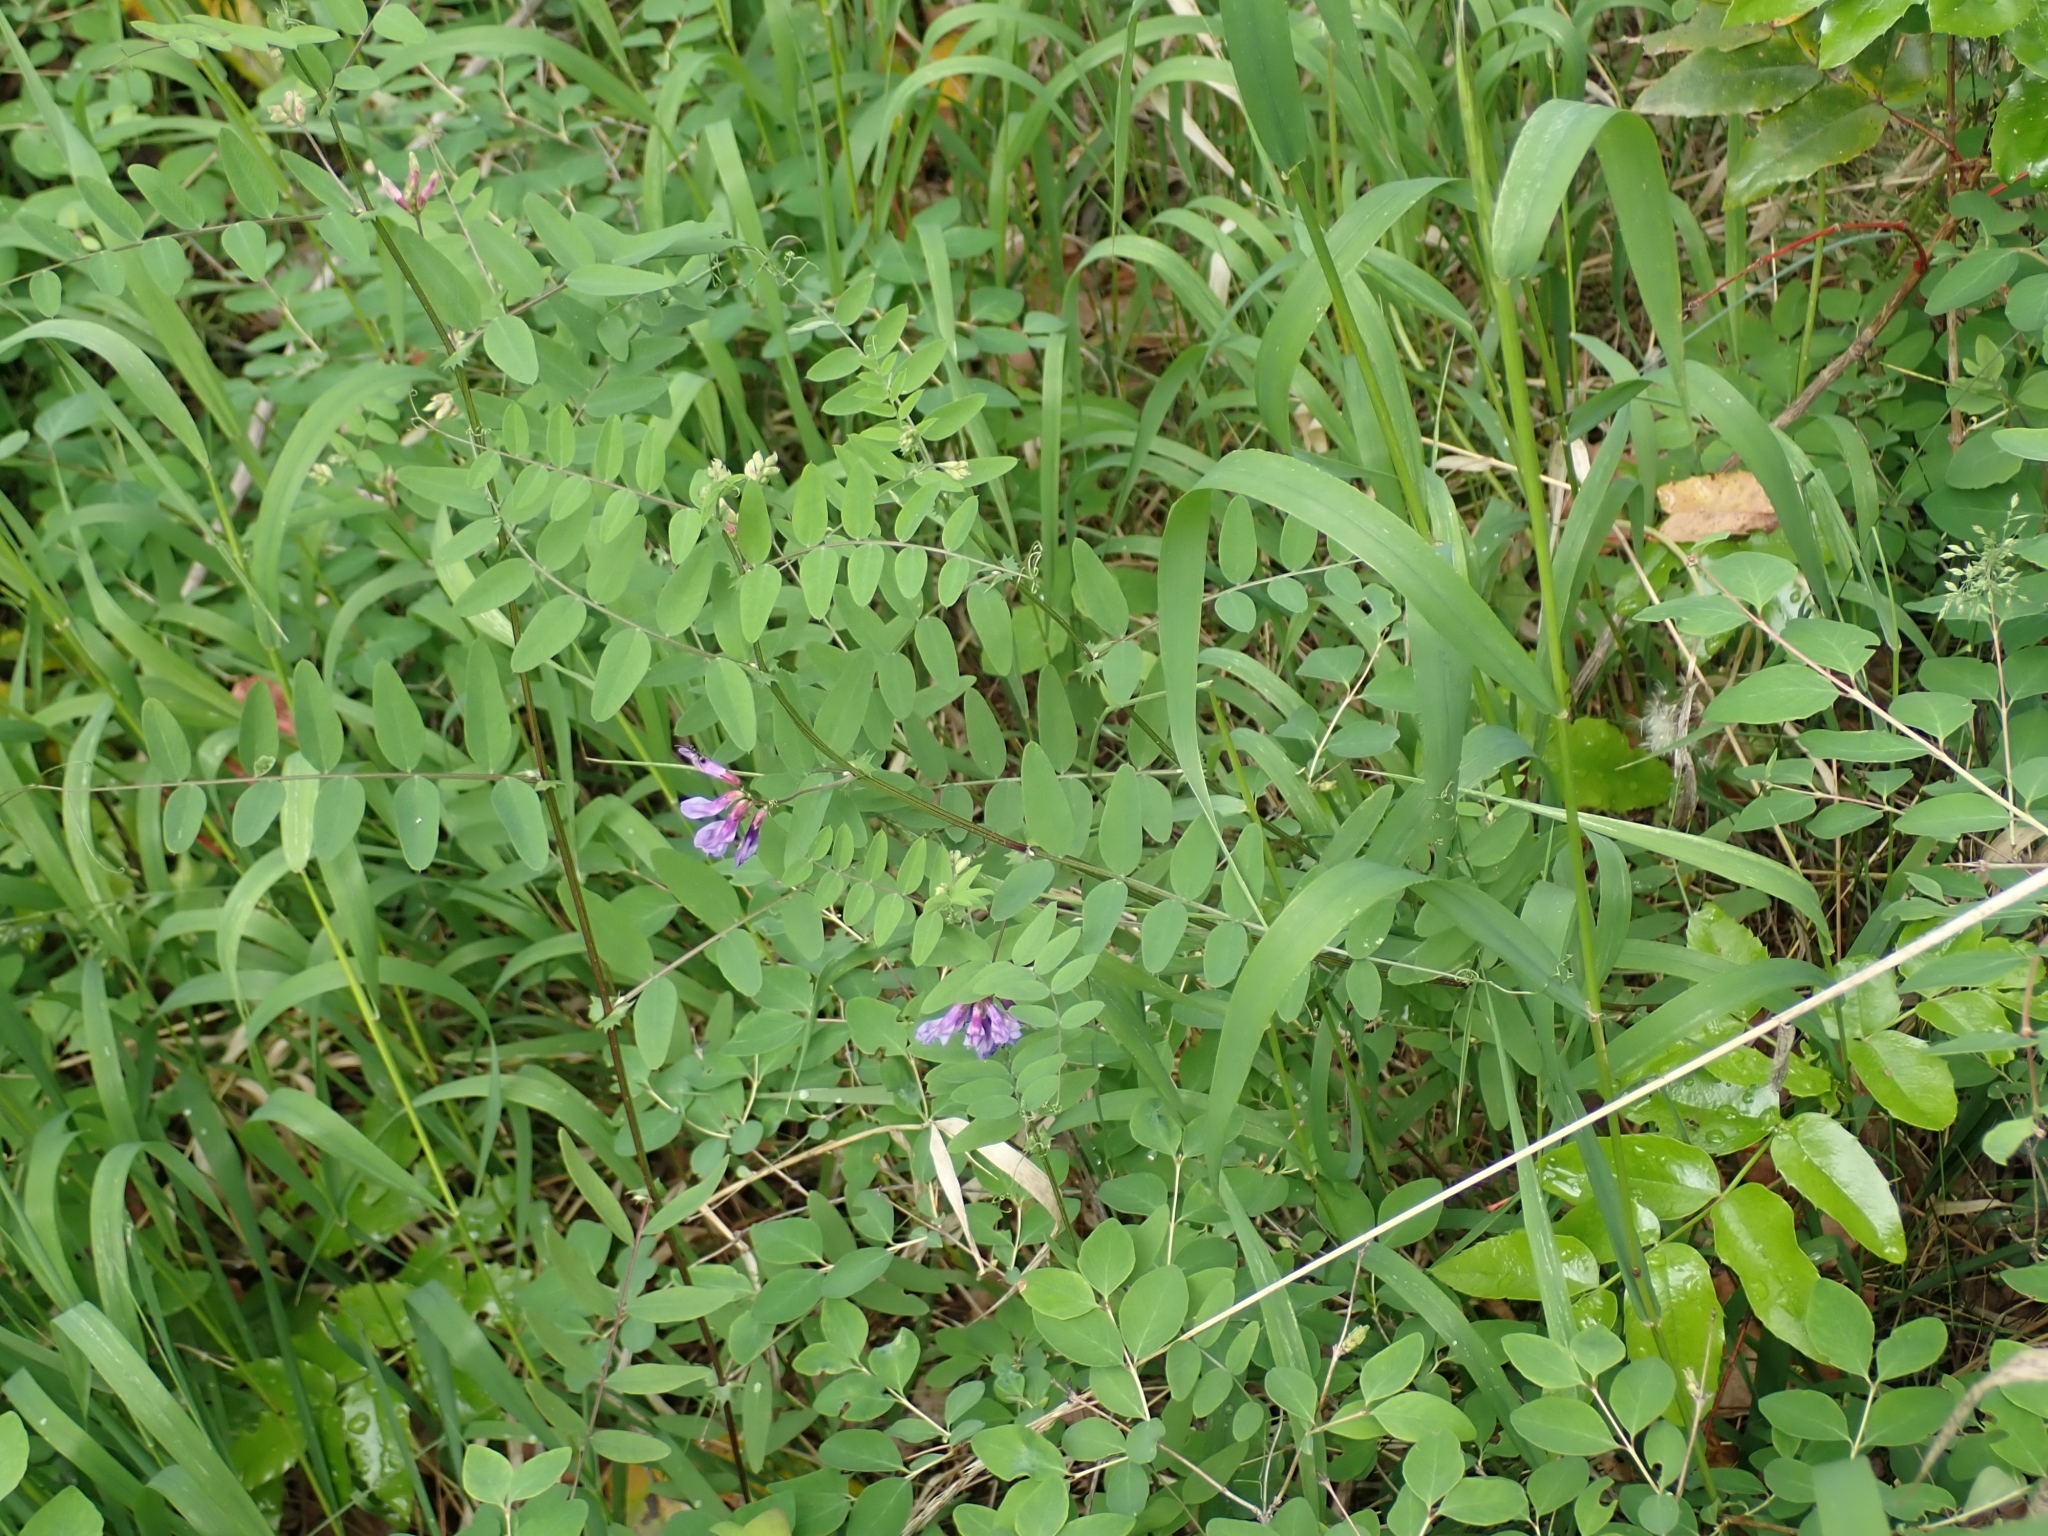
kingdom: Plantae
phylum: Tracheophyta
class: Magnoliopsida
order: Fabales
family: Fabaceae
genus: Vicia
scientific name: Vicia americana
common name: American vetch
